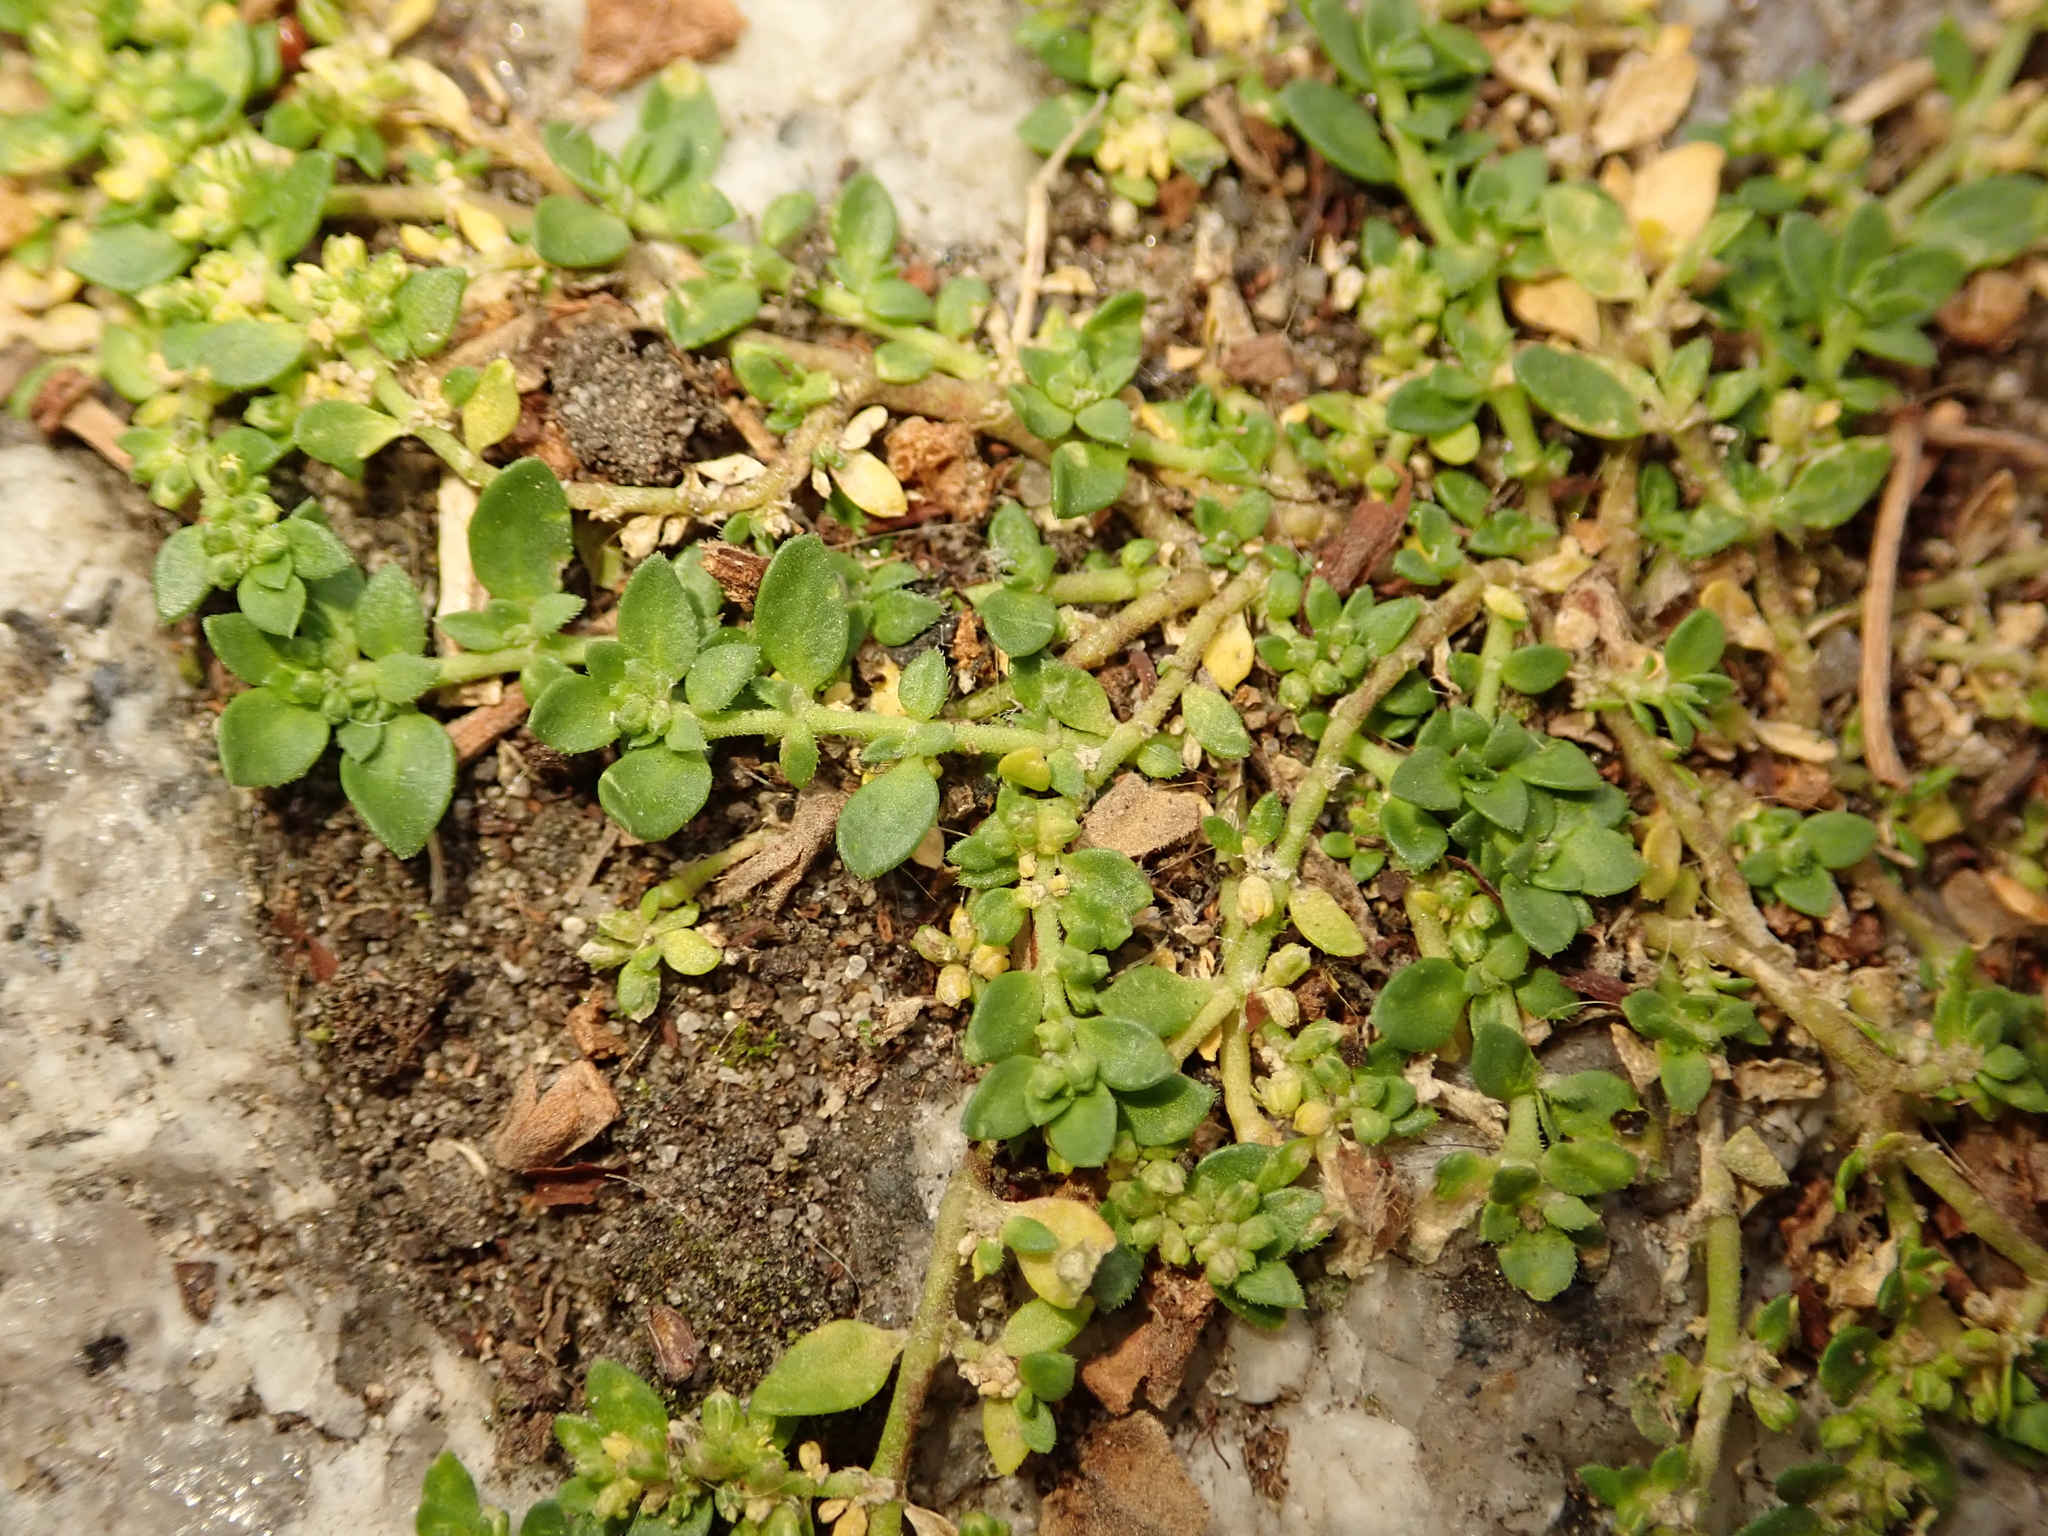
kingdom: Plantae
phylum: Tracheophyta
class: Magnoliopsida
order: Caryophyllales
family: Caryophyllaceae
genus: Herniaria
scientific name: Herniaria glabra
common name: Smooth rupturewort
